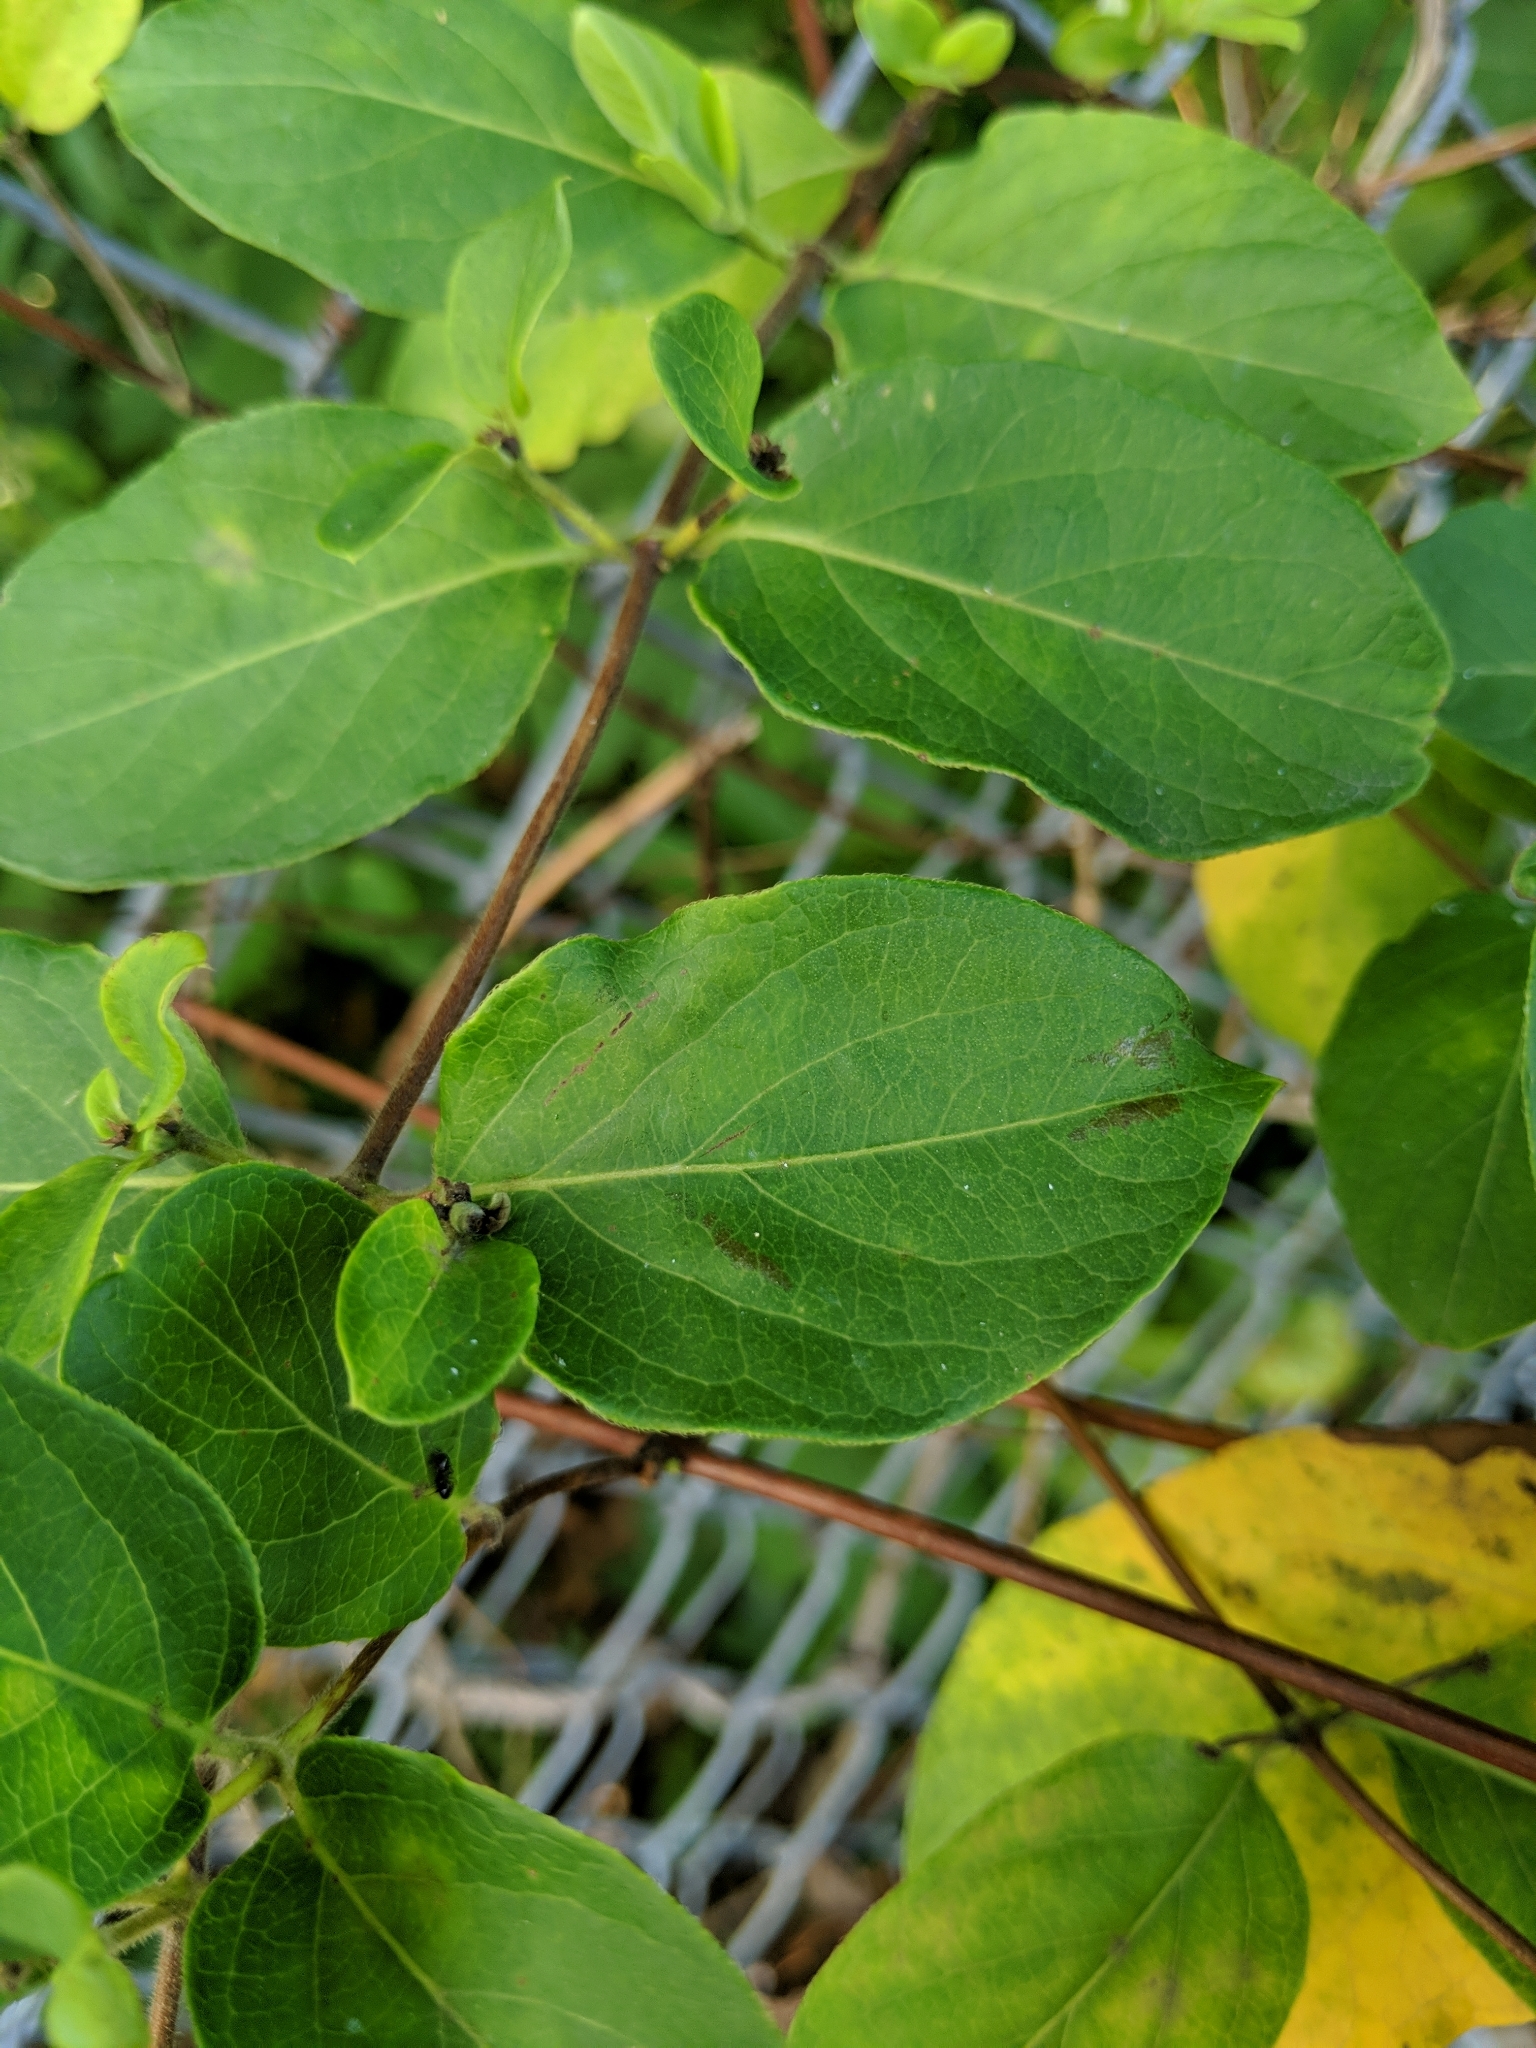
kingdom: Plantae
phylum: Tracheophyta
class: Magnoliopsida
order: Dipsacales
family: Caprifoliaceae
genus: Lonicera
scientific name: Lonicera japonica
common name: Japanese honeysuckle
